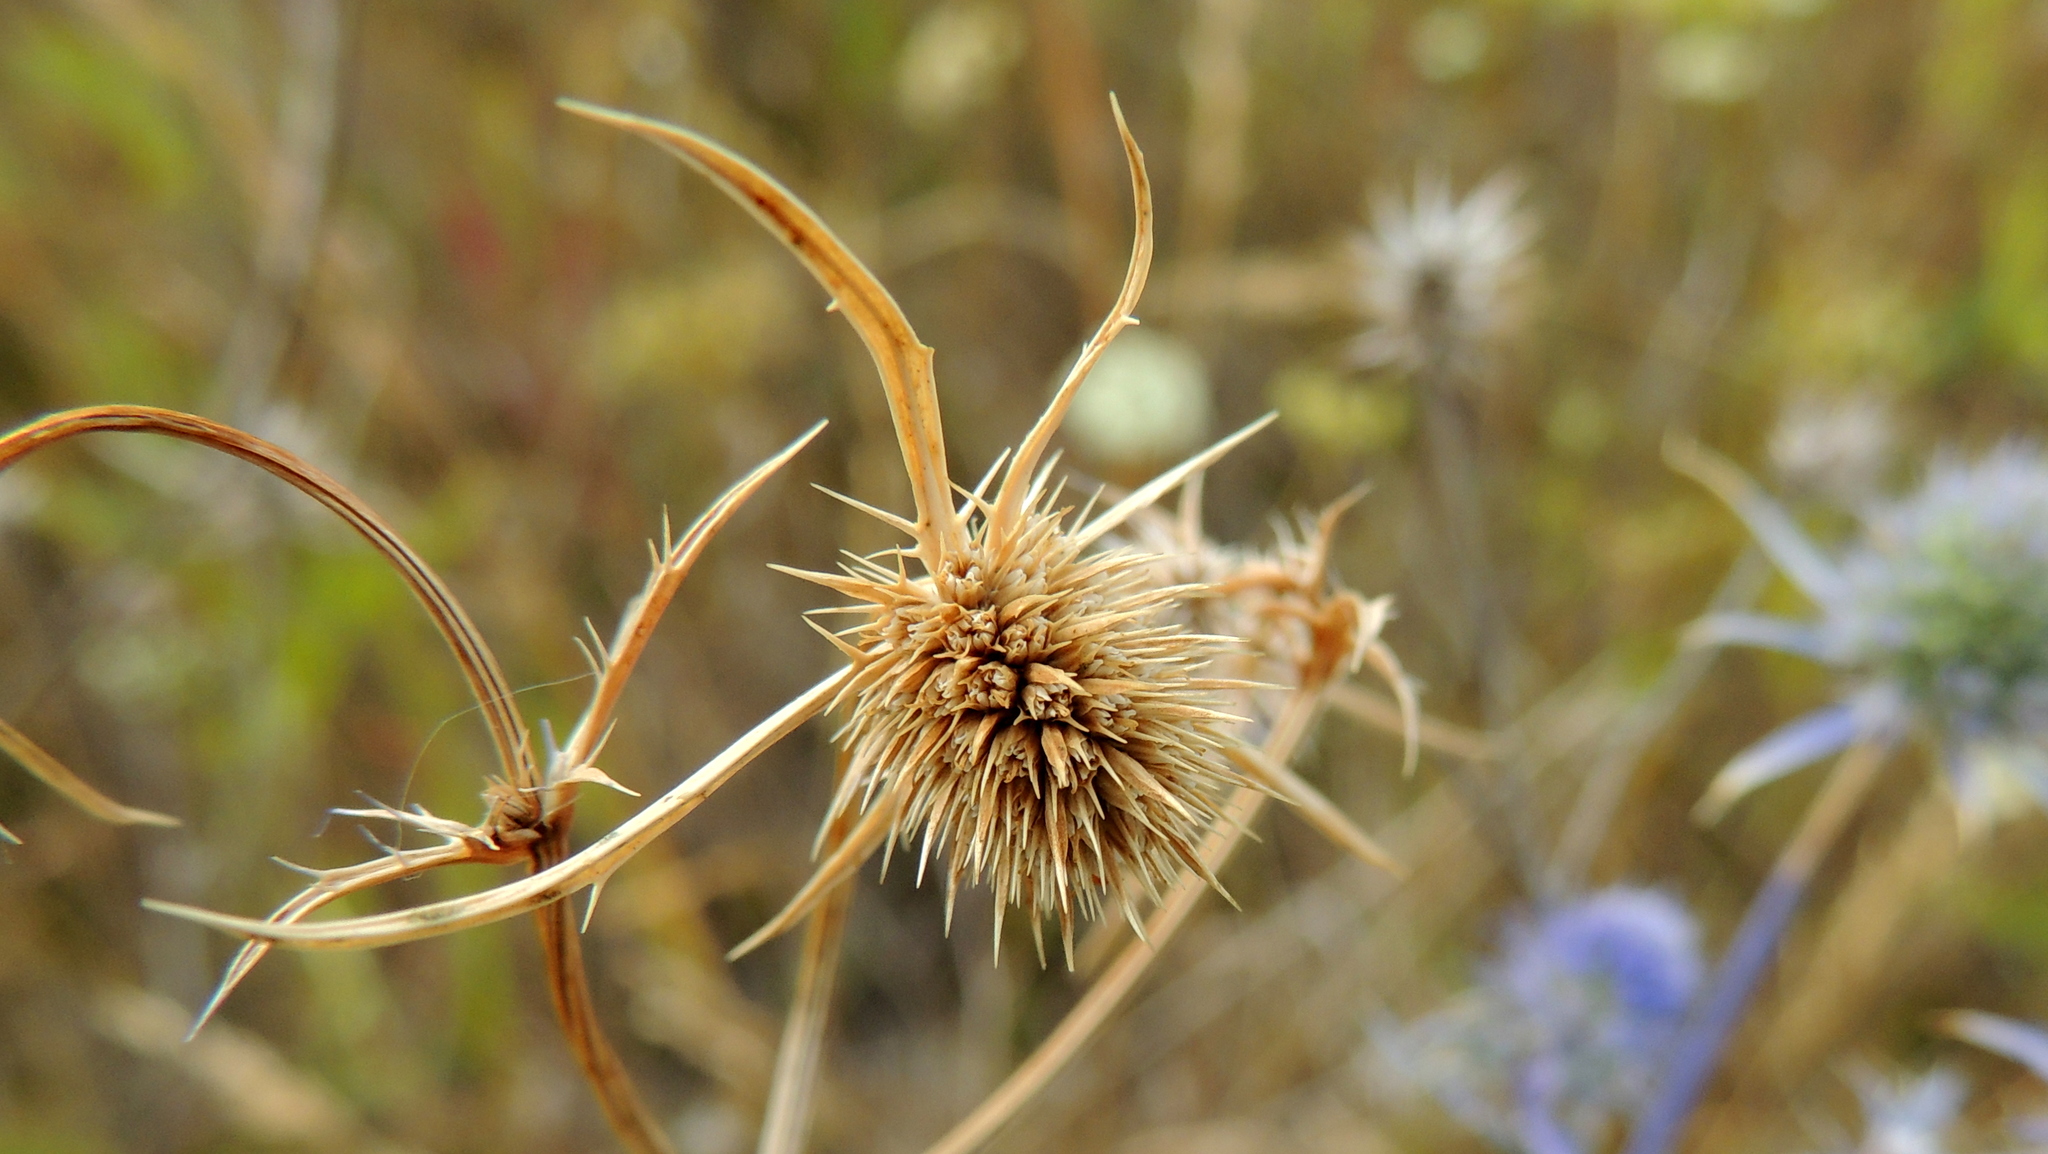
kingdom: Plantae
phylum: Tracheophyta
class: Magnoliopsida
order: Apiales
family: Apiaceae
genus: Eryngium
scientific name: Eryngium planum
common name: Blue eryngo
